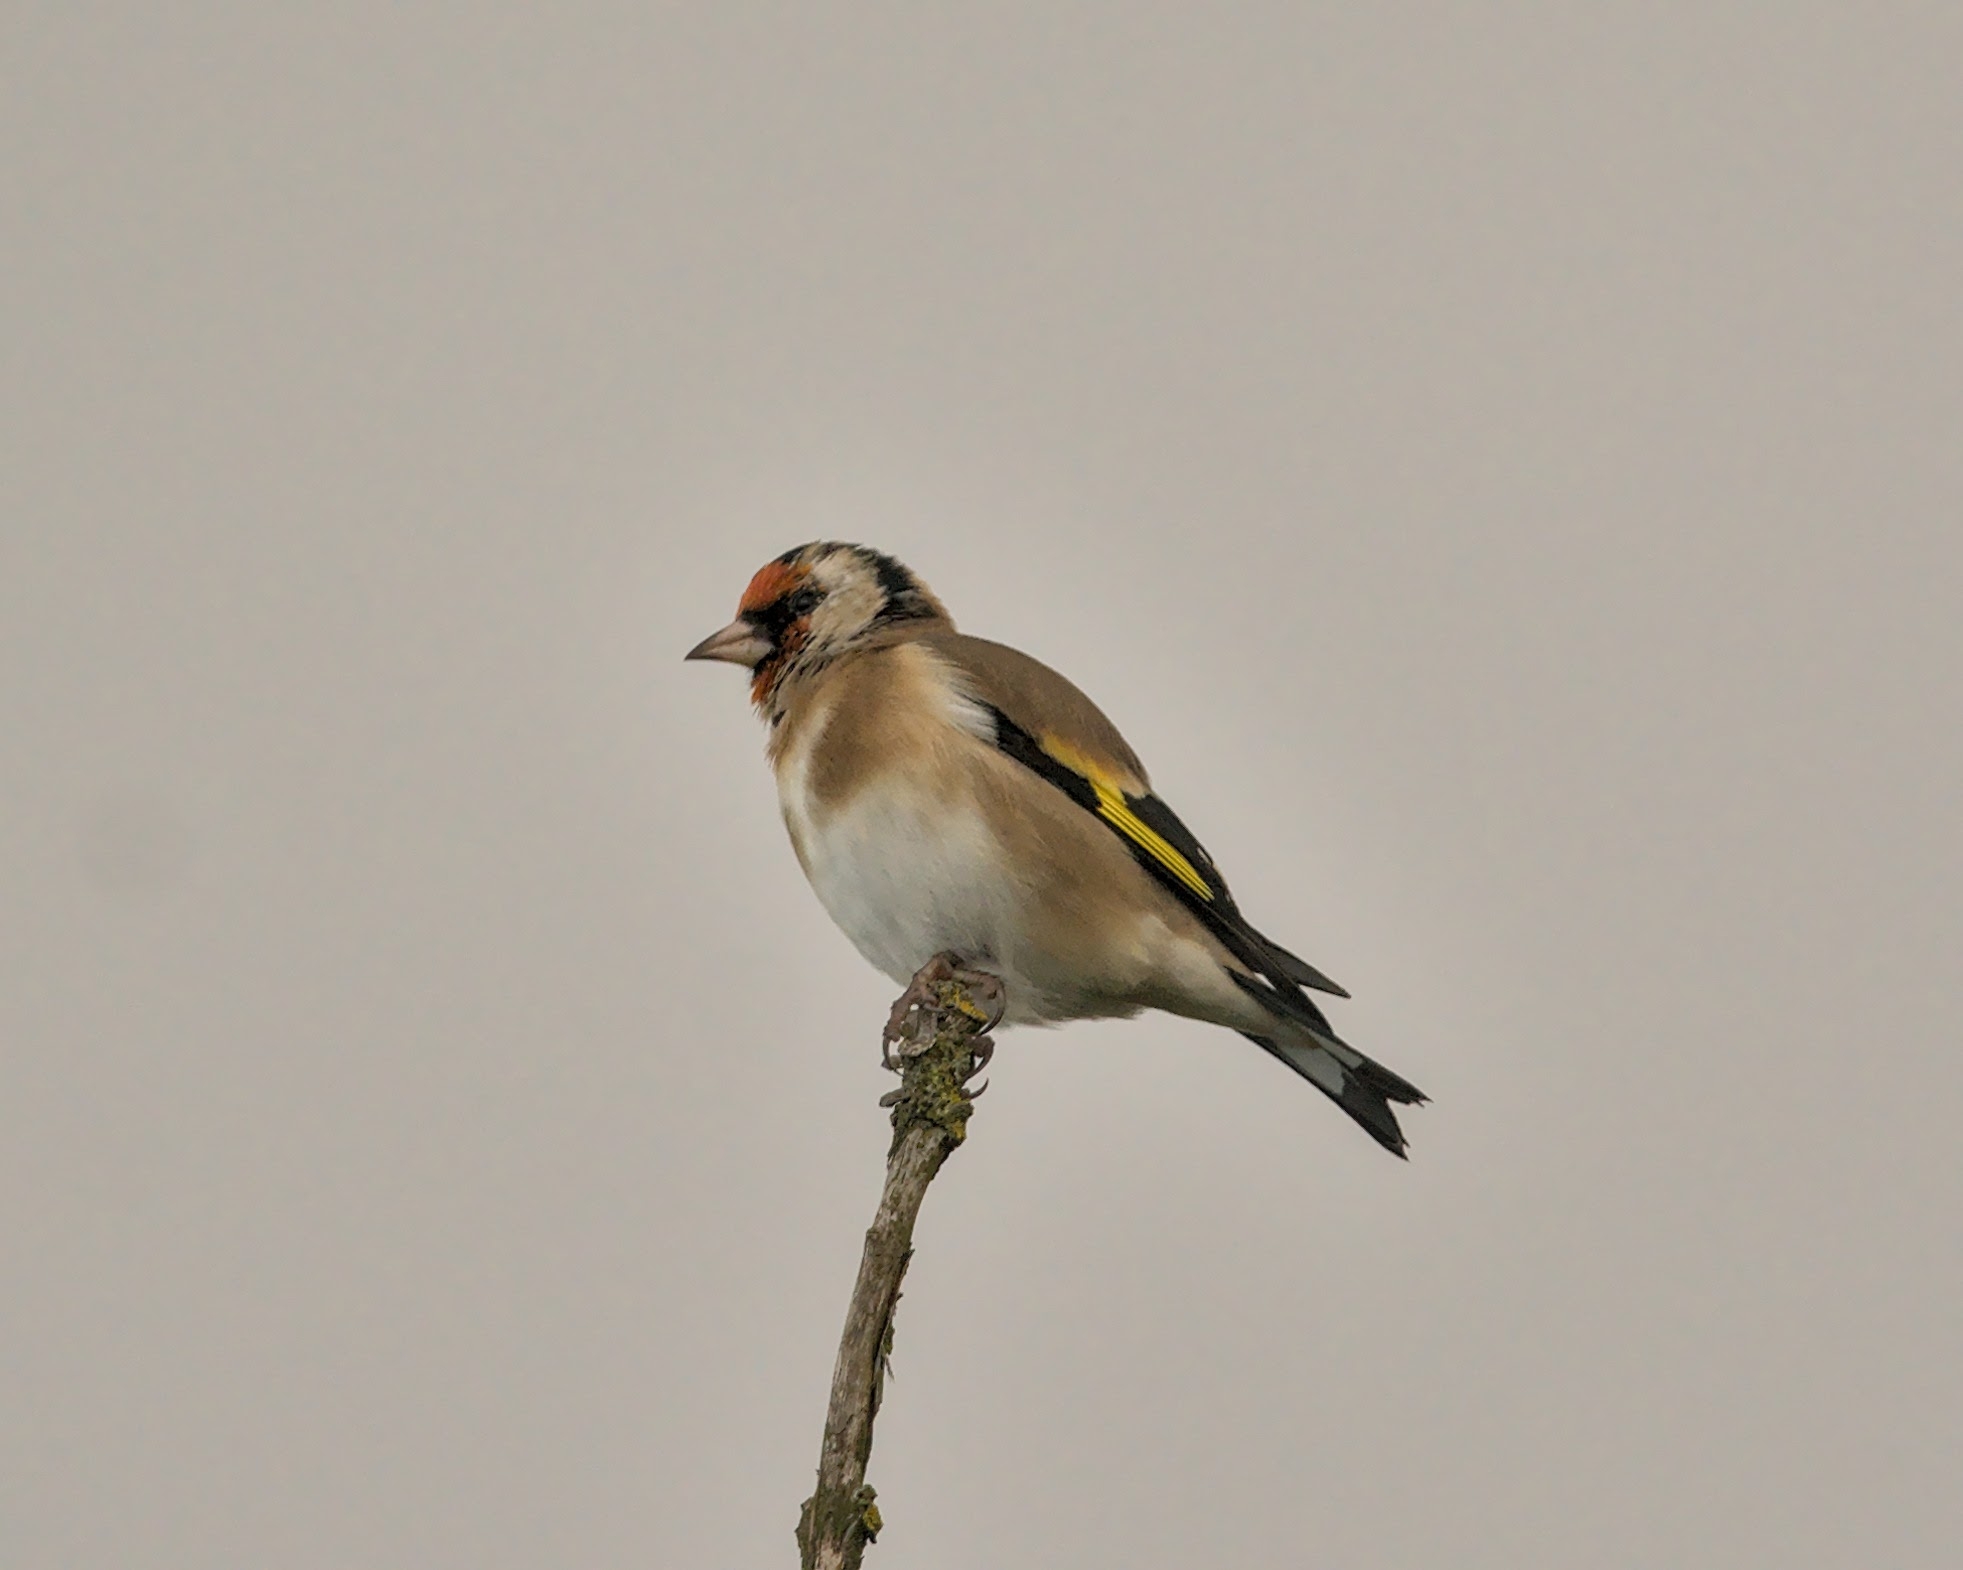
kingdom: Animalia
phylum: Chordata
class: Aves
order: Passeriformes
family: Fringillidae
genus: Carduelis
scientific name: Carduelis carduelis
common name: European goldfinch
